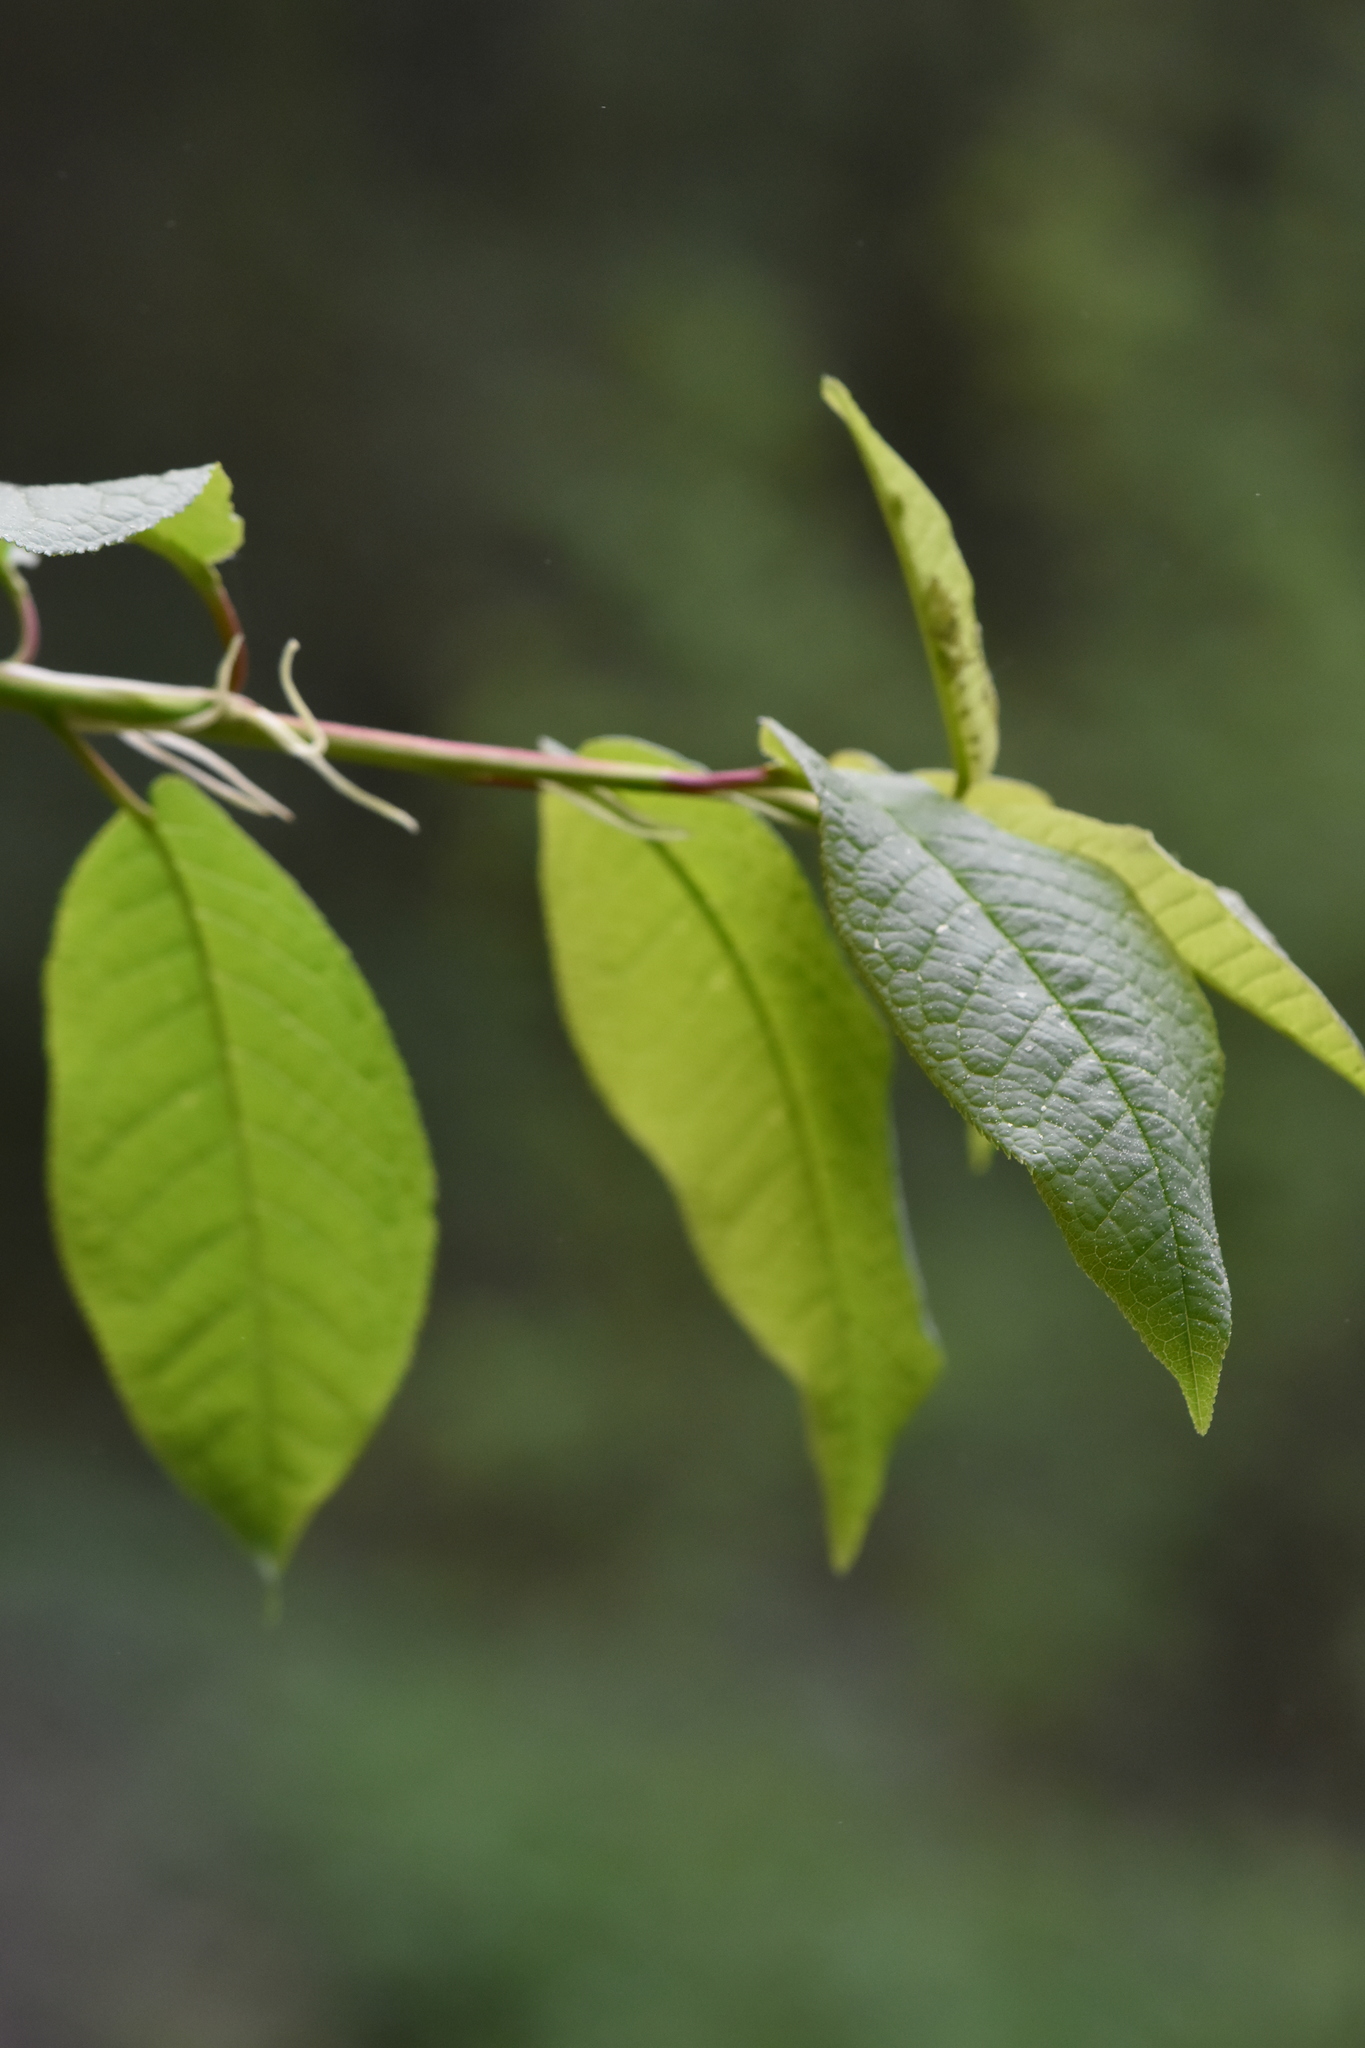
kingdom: Plantae
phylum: Tracheophyta
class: Magnoliopsida
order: Rosales
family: Rosaceae
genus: Prunus
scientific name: Prunus padus
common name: Bird cherry
